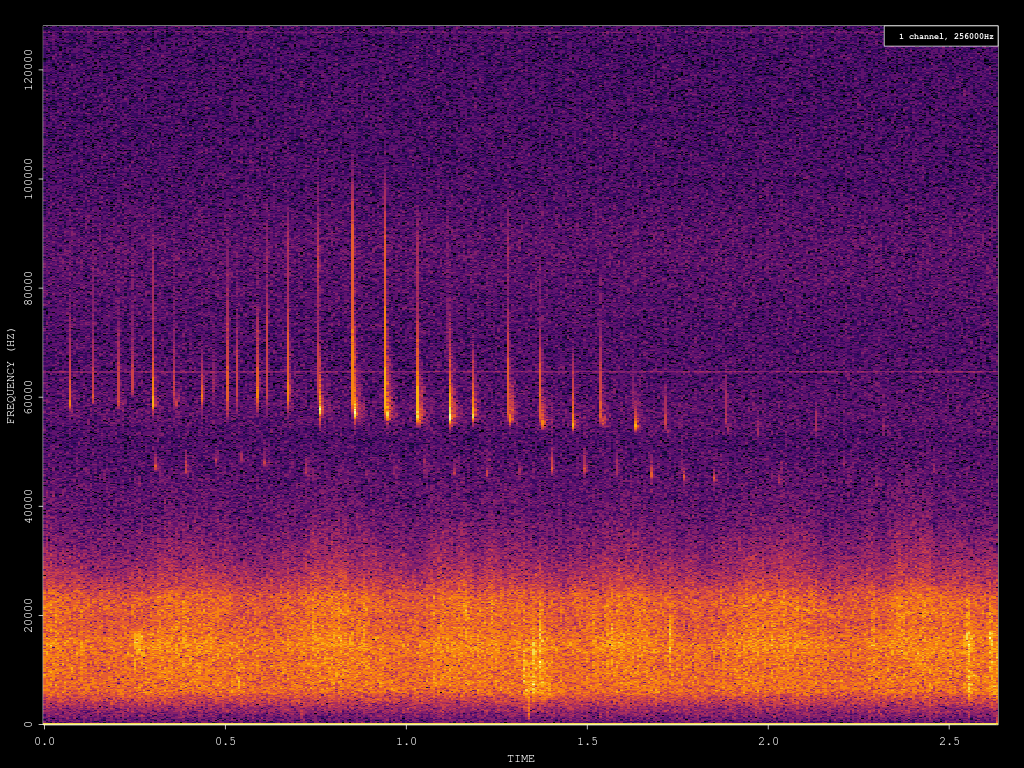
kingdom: Animalia
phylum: Chordata
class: Mammalia
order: Chiroptera
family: Vespertilionidae
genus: Pipistrellus
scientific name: Pipistrellus pygmaeus
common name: Soprano pipistrelle
